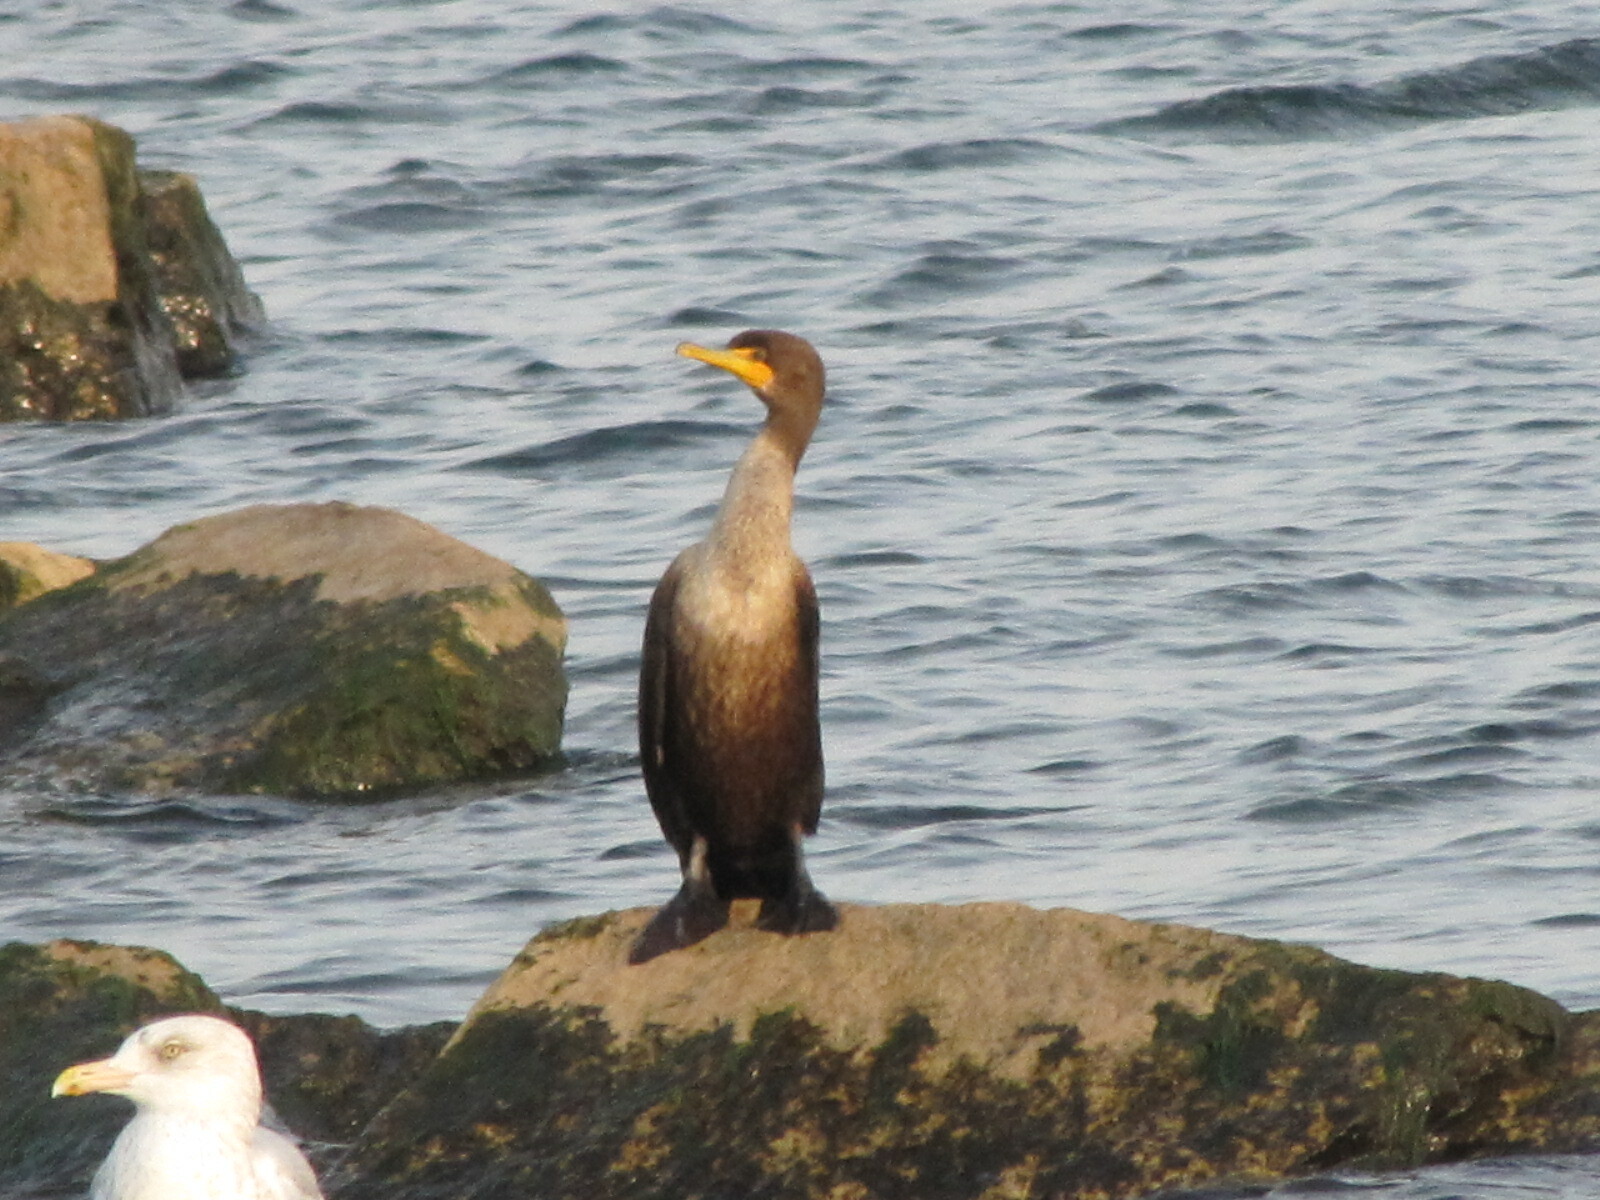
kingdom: Animalia
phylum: Chordata
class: Aves
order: Suliformes
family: Phalacrocoracidae
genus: Phalacrocorax
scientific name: Phalacrocorax auritus
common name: Double-crested cormorant
